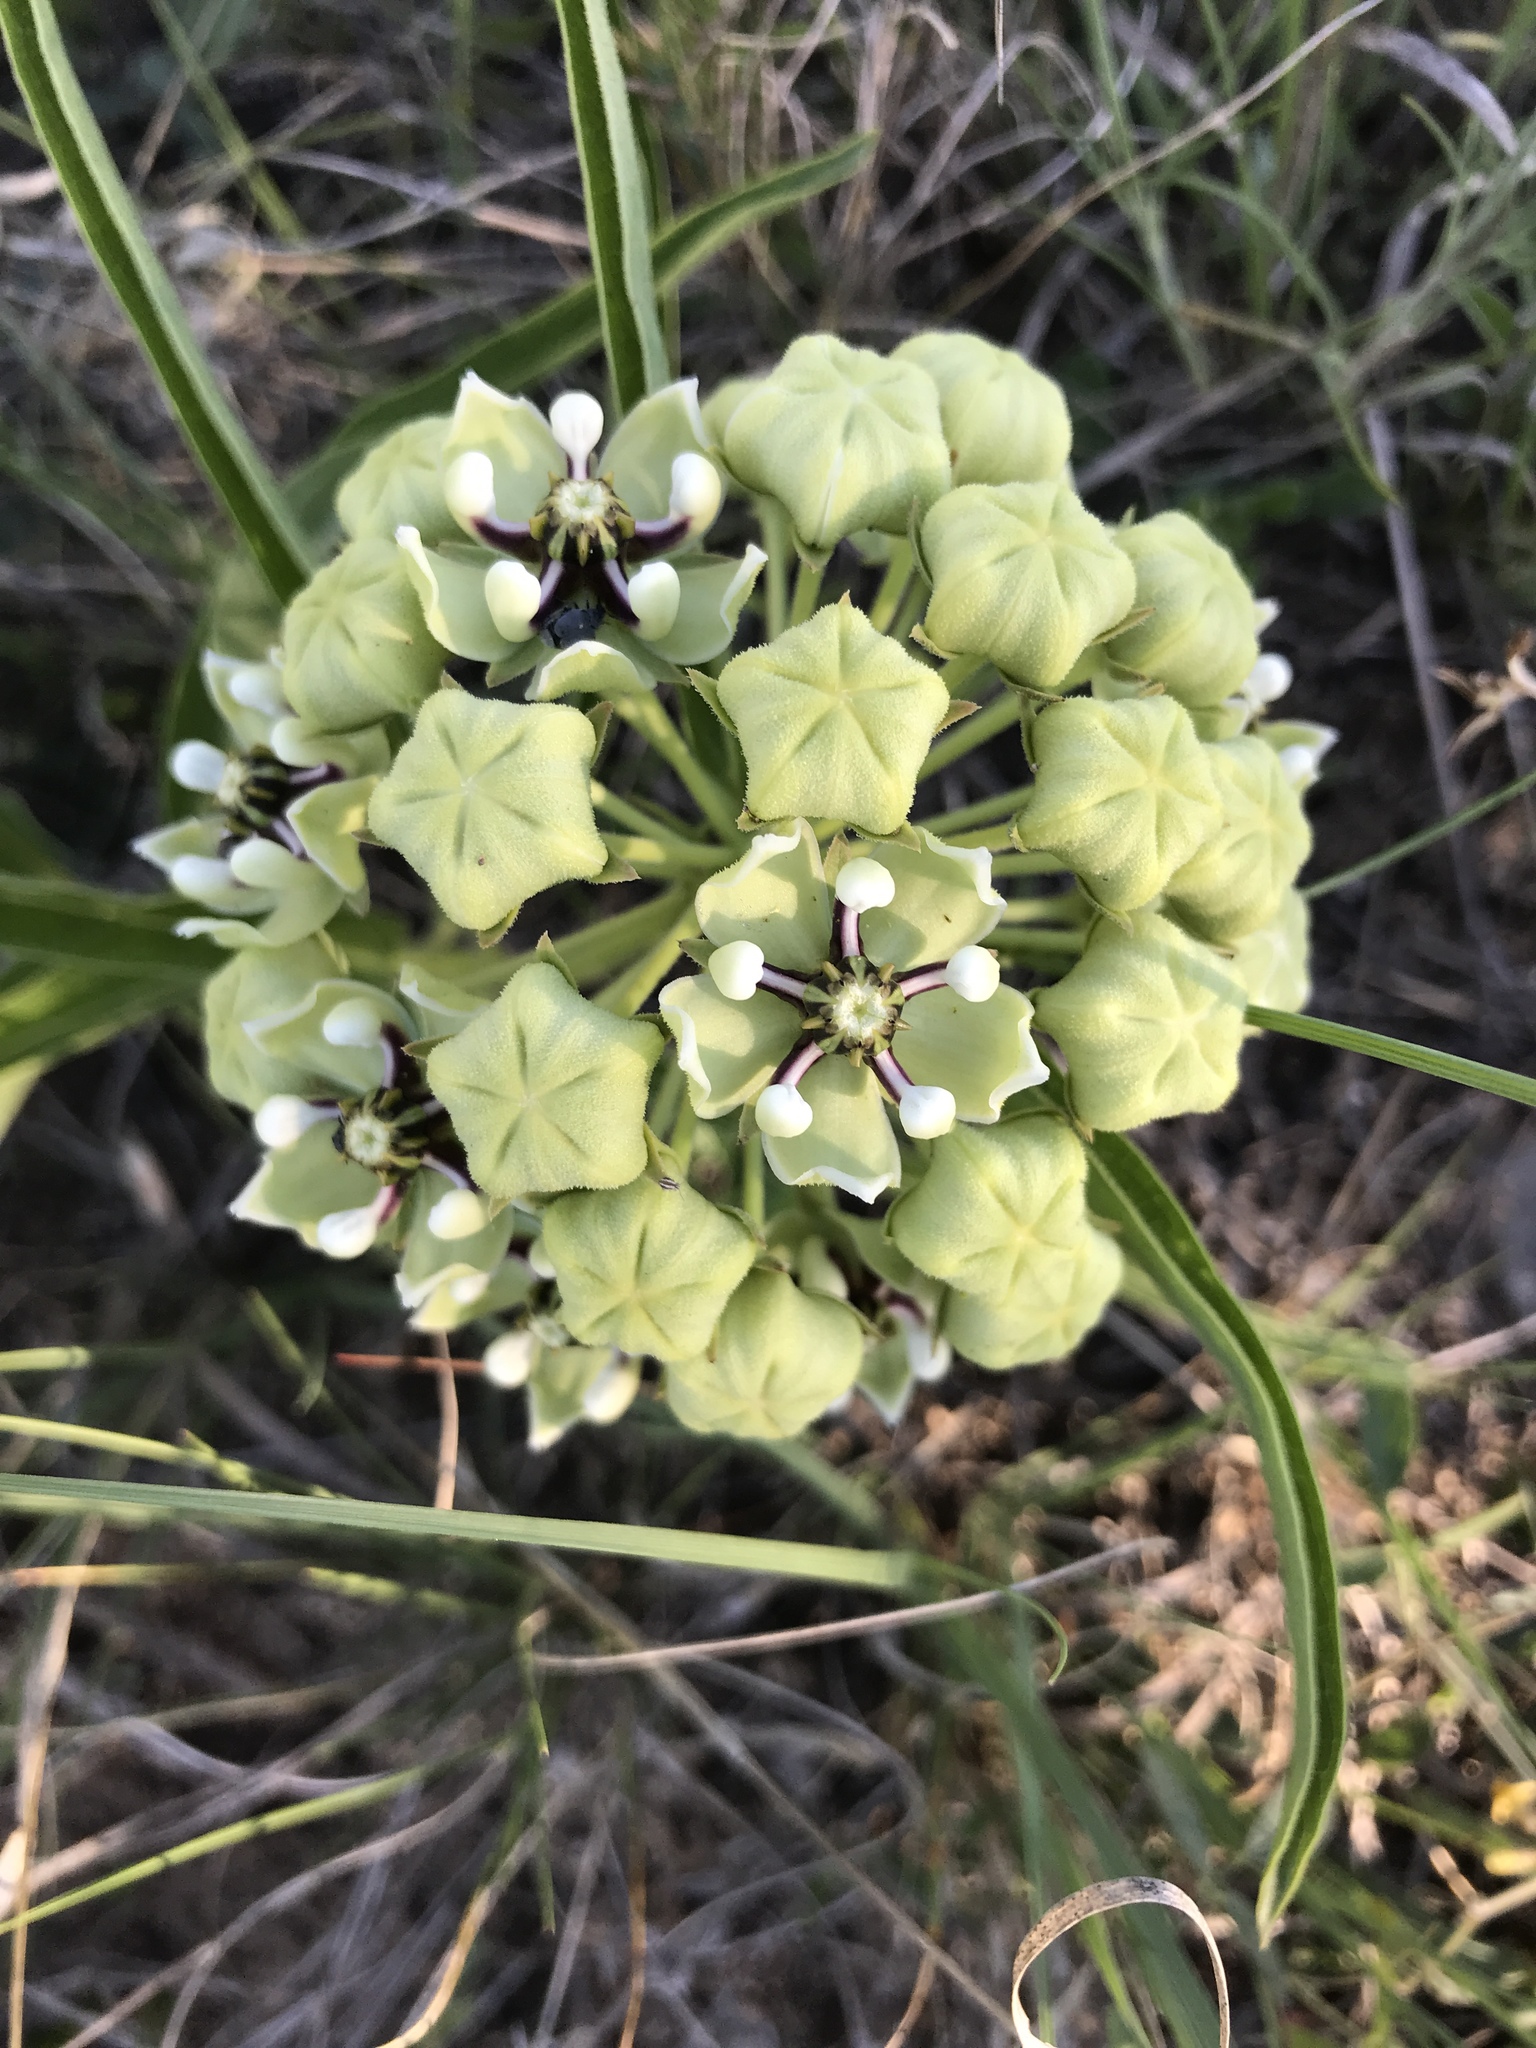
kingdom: Plantae
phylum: Tracheophyta
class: Magnoliopsida
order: Gentianales
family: Apocynaceae
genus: Asclepias
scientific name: Asclepias asperula
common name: Antelope horns
